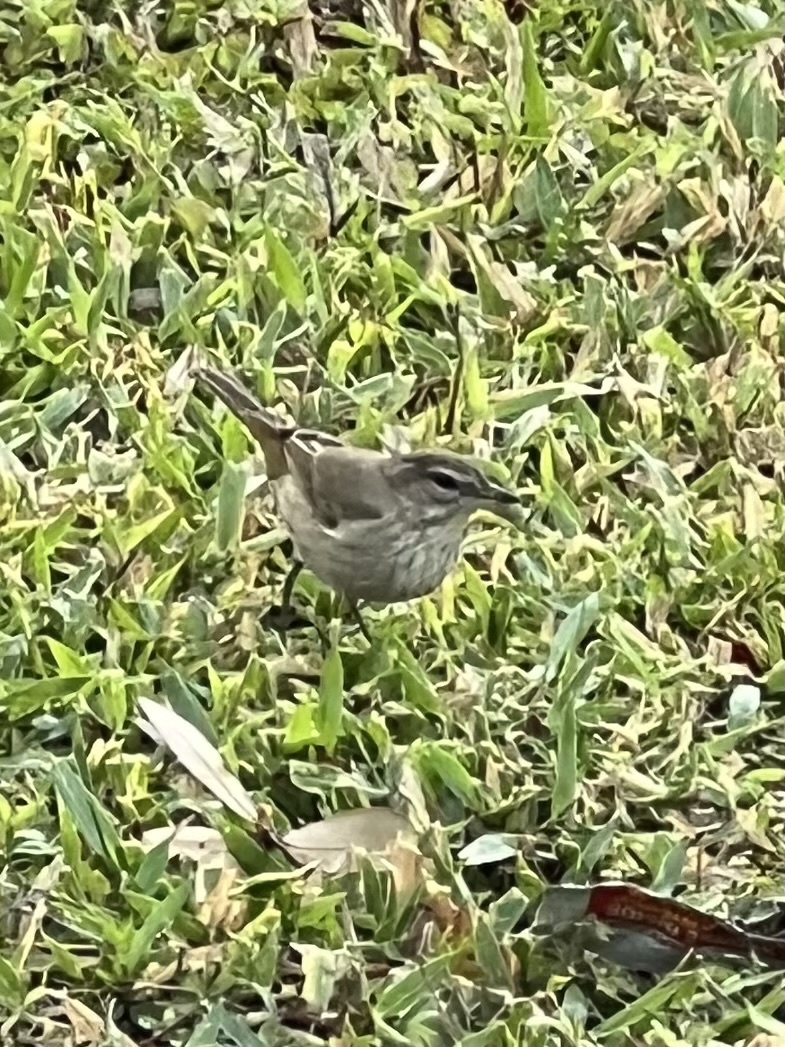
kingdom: Animalia
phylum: Chordata
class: Aves
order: Passeriformes
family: Parulidae
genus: Setophaga
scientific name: Setophaga palmarum
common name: Palm warbler
